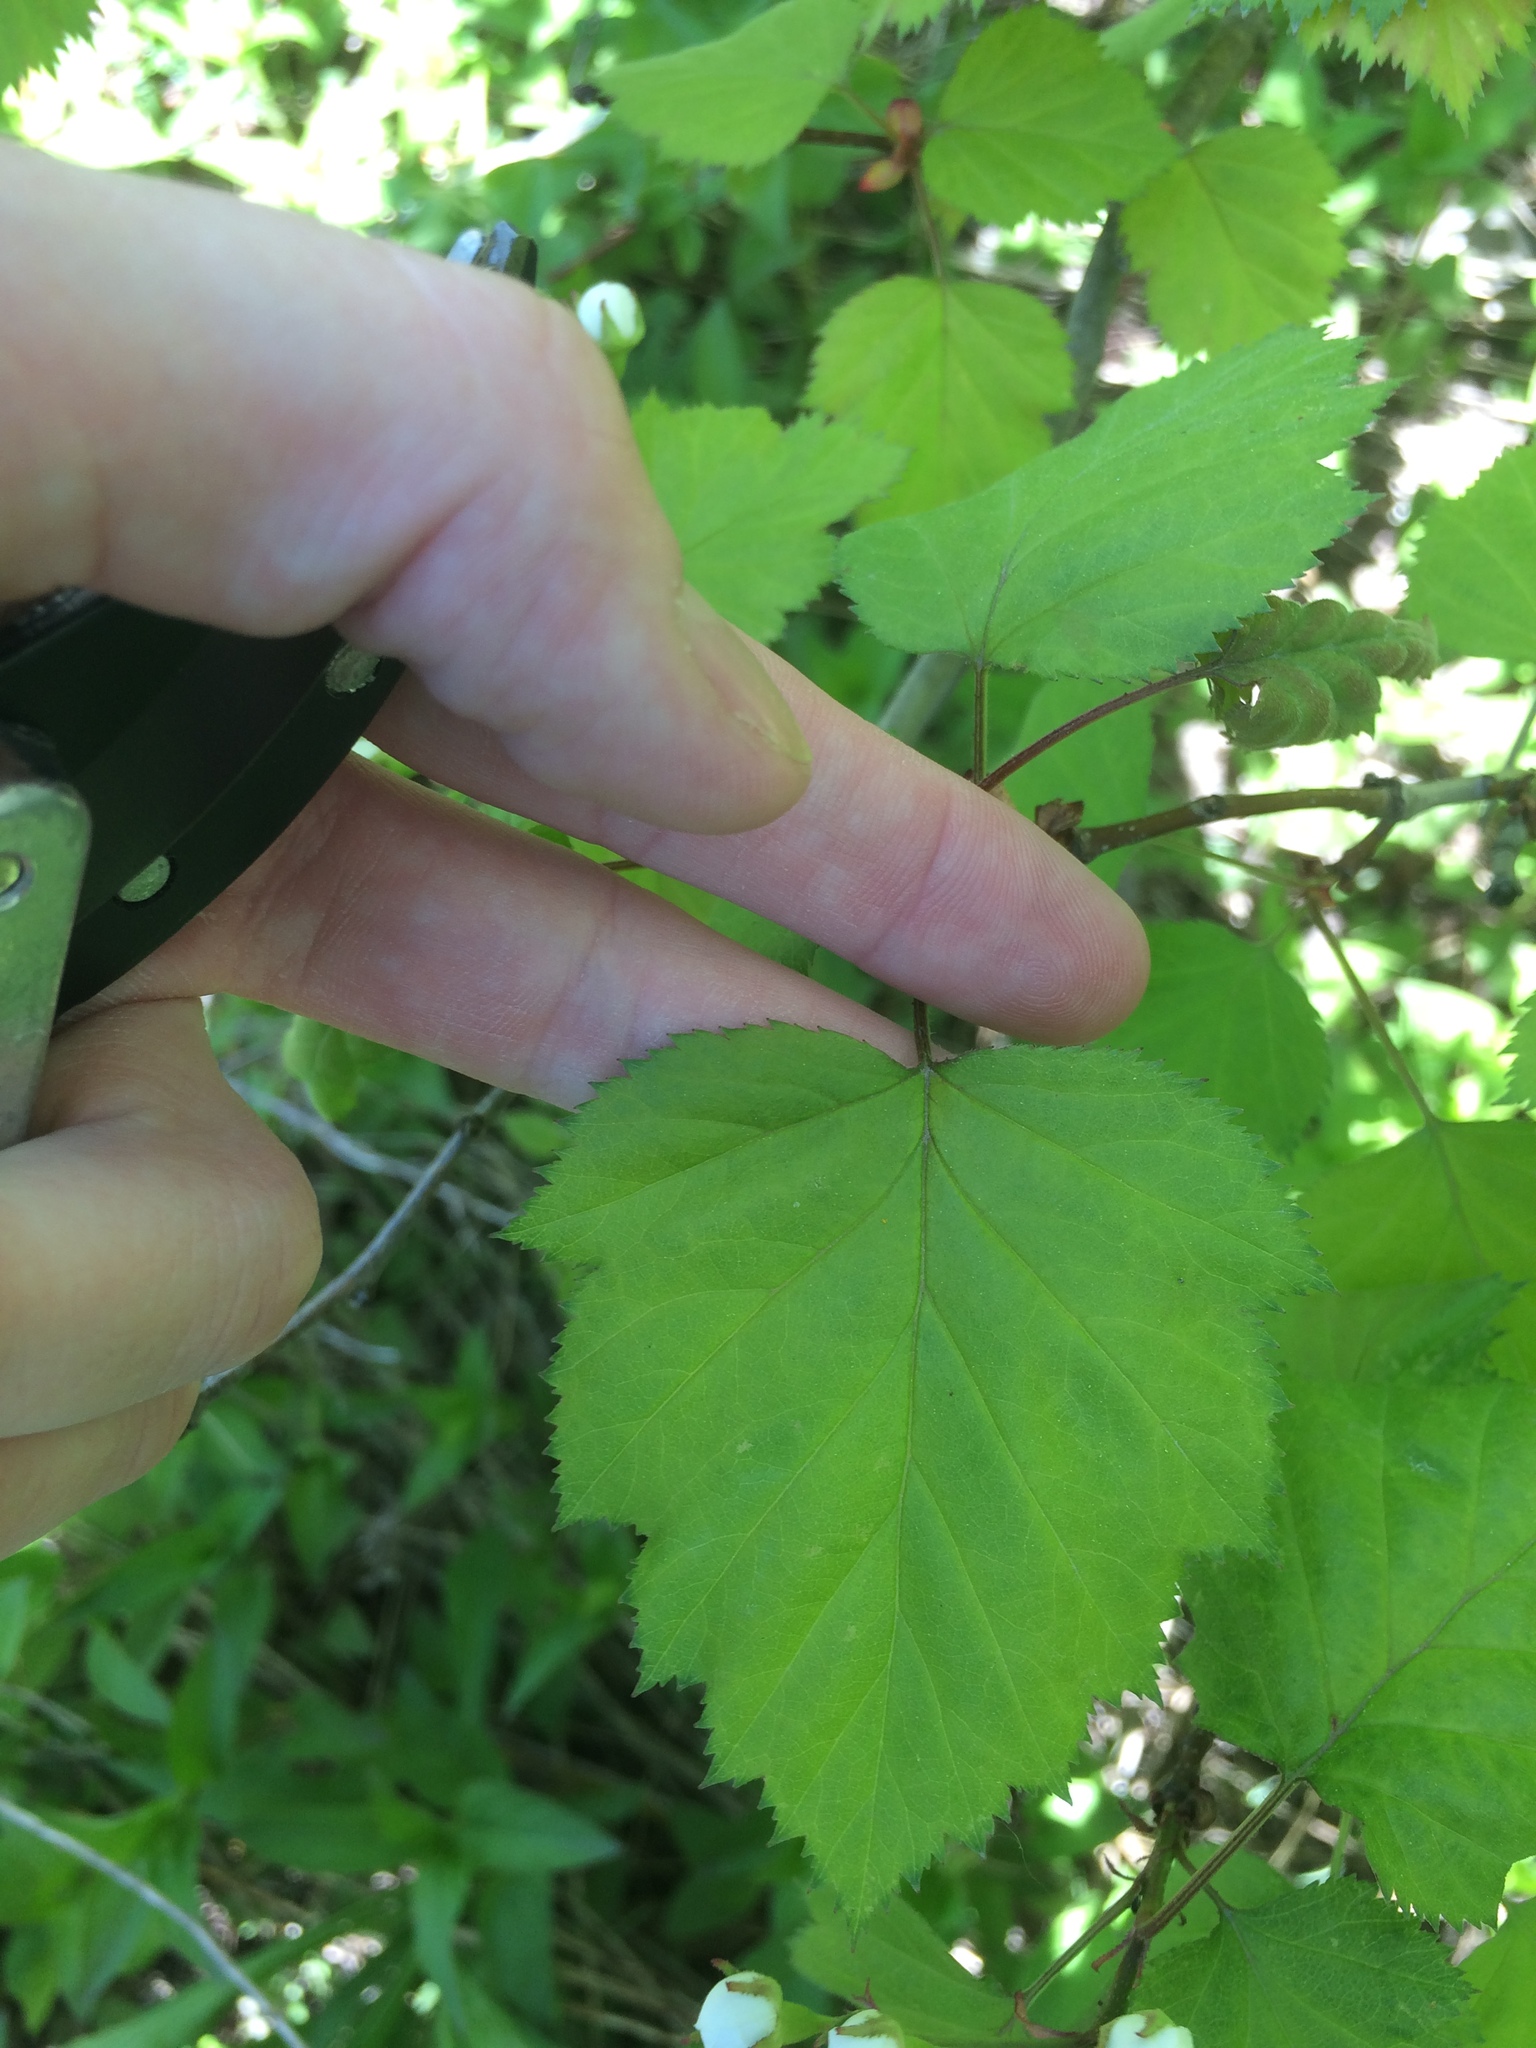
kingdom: Plantae
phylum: Tracheophyta
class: Magnoliopsida
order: Rosales
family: Rosaceae
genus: Crataegus
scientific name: Crataegus coccinioides
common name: Large-flowered cockspurthorn
